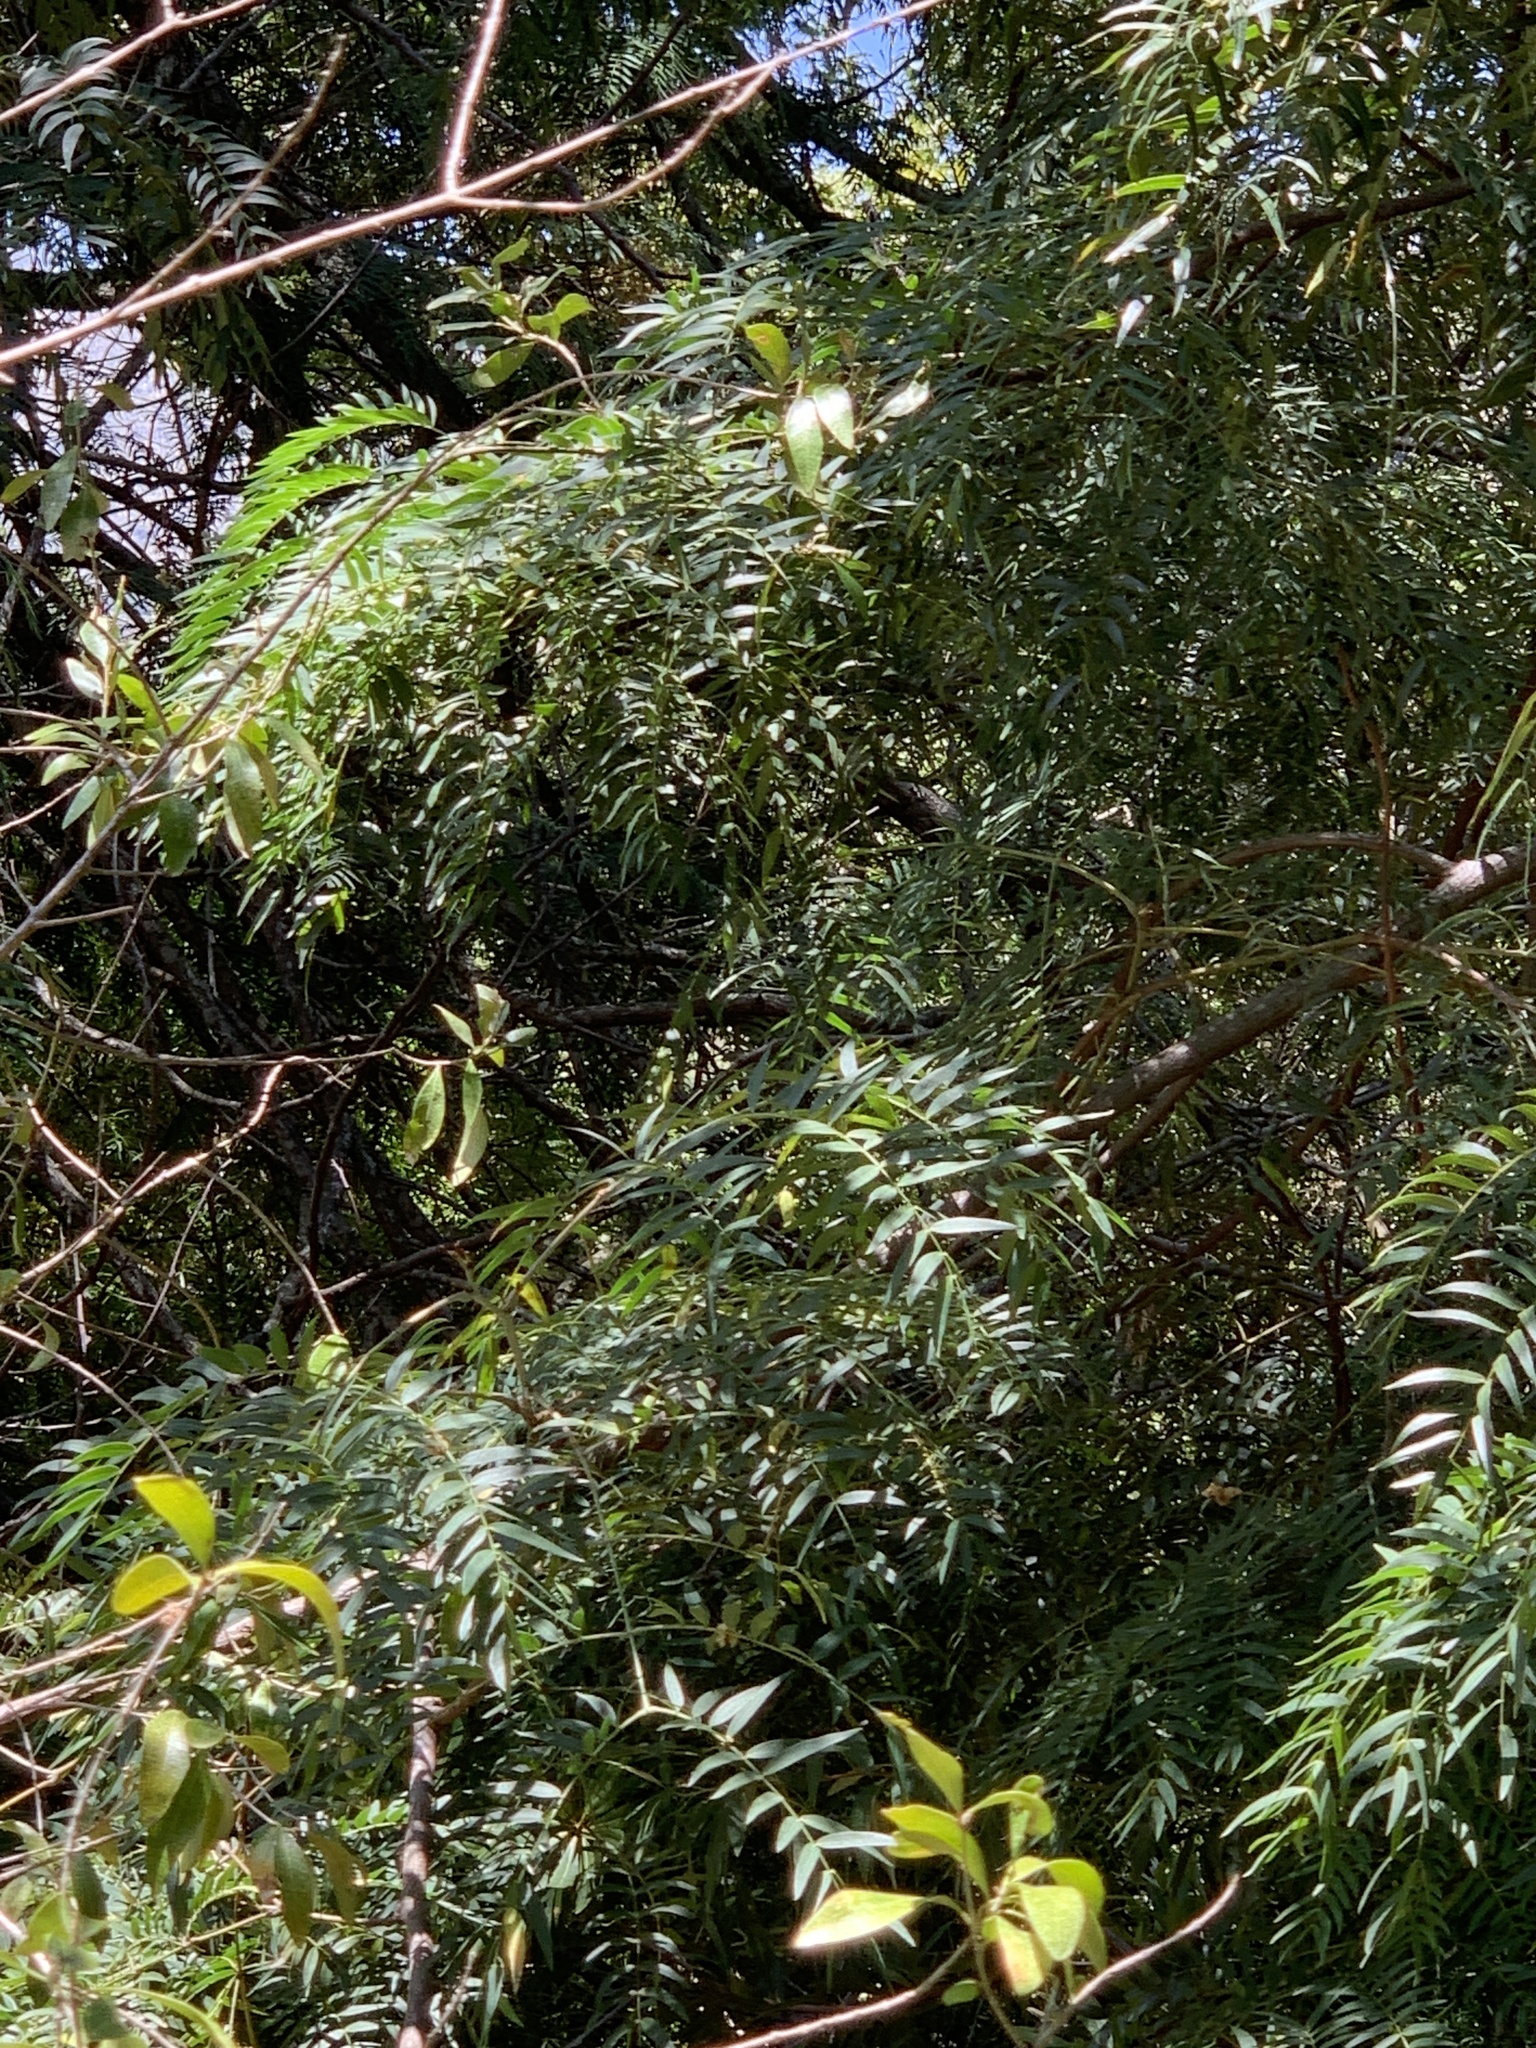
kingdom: Plantae
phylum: Tracheophyta
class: Magnoliopsida
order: Fabales
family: Fabaceae
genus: Acacia
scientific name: Acacia elata
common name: Cedar wattle
